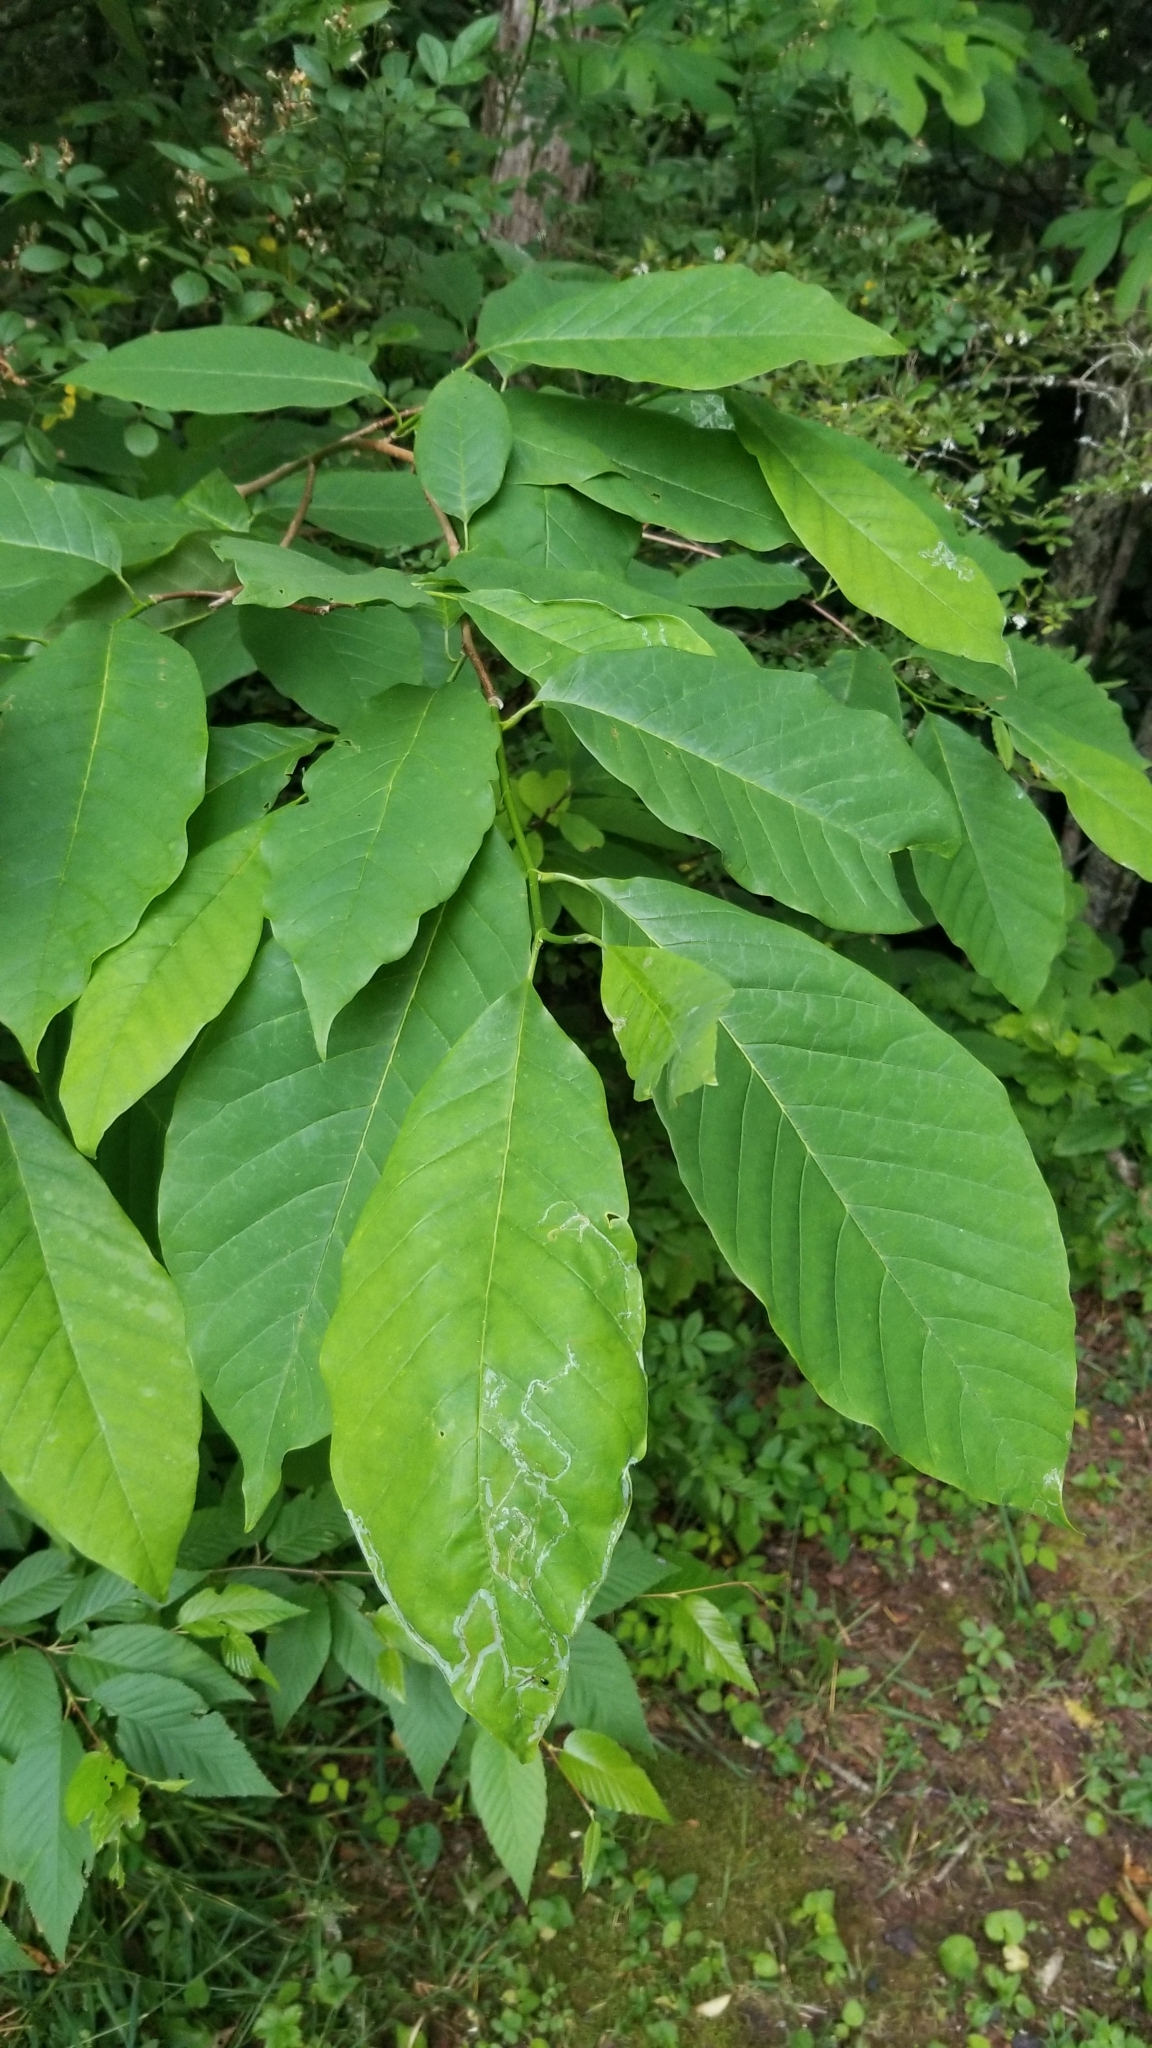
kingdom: Plantae
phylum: Tracheophyta
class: Magnoliopsida
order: Magnoliales
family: Magnoliaceae
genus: Magnolia
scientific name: Magnolia acuminata
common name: Cucumber magnolia
